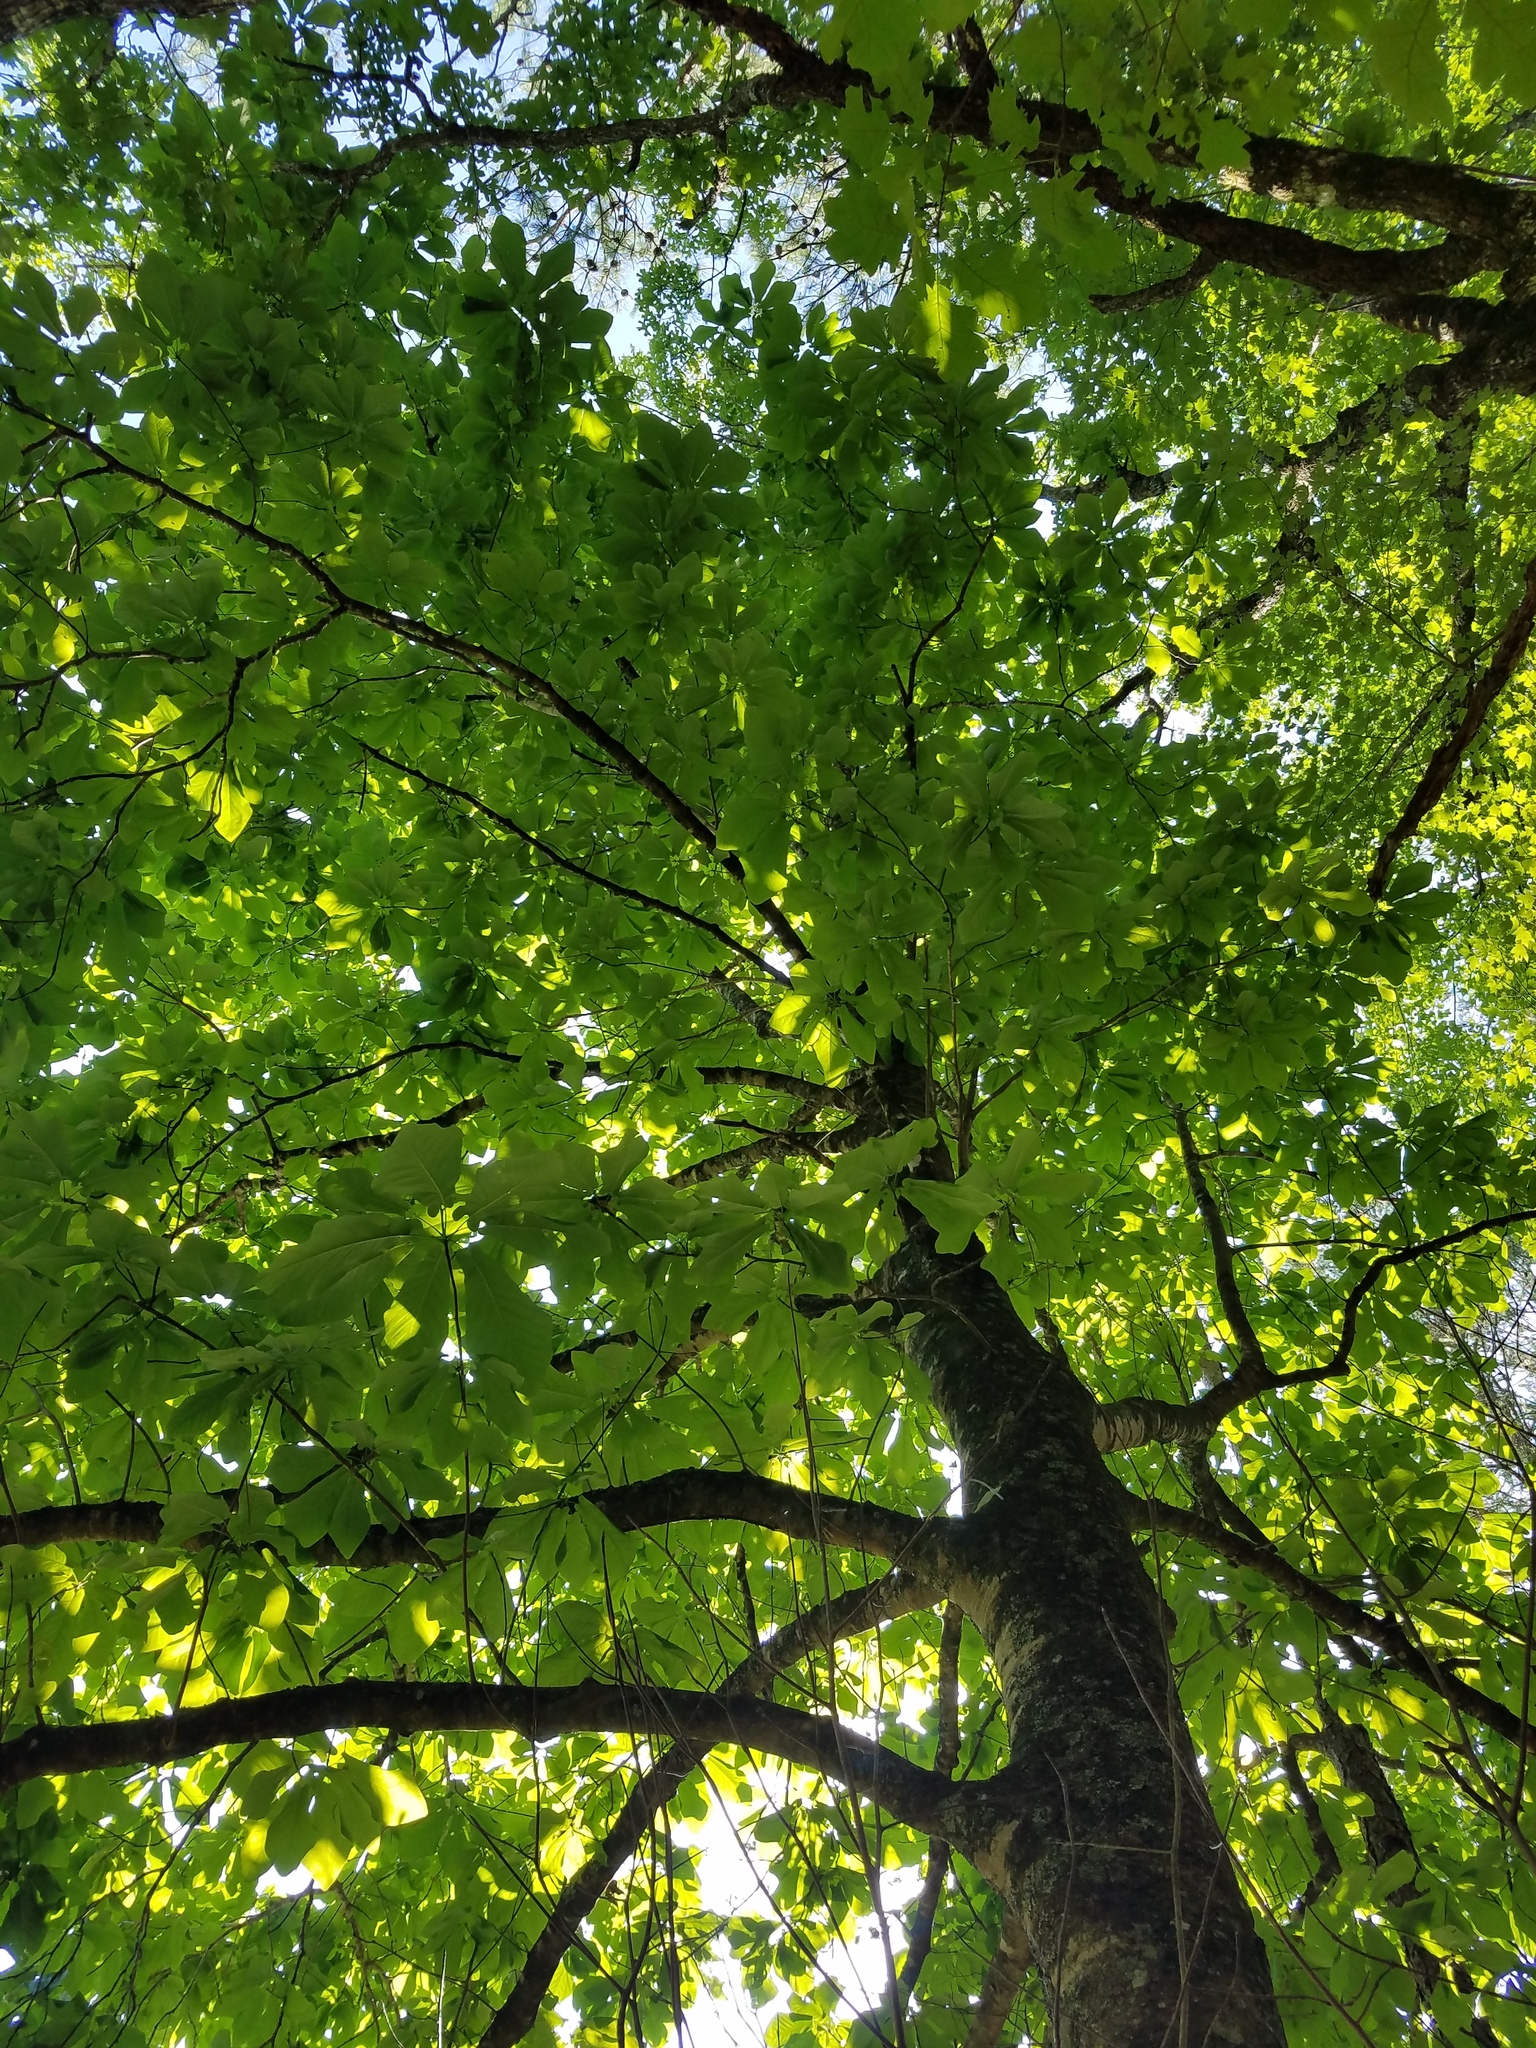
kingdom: Plantae
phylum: Tracheophyta
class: Magnoliopsida
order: Magnoliales
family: Magnoliaceae
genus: Magnolia
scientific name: Magnolia fraseri
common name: Fraser's magnolia
